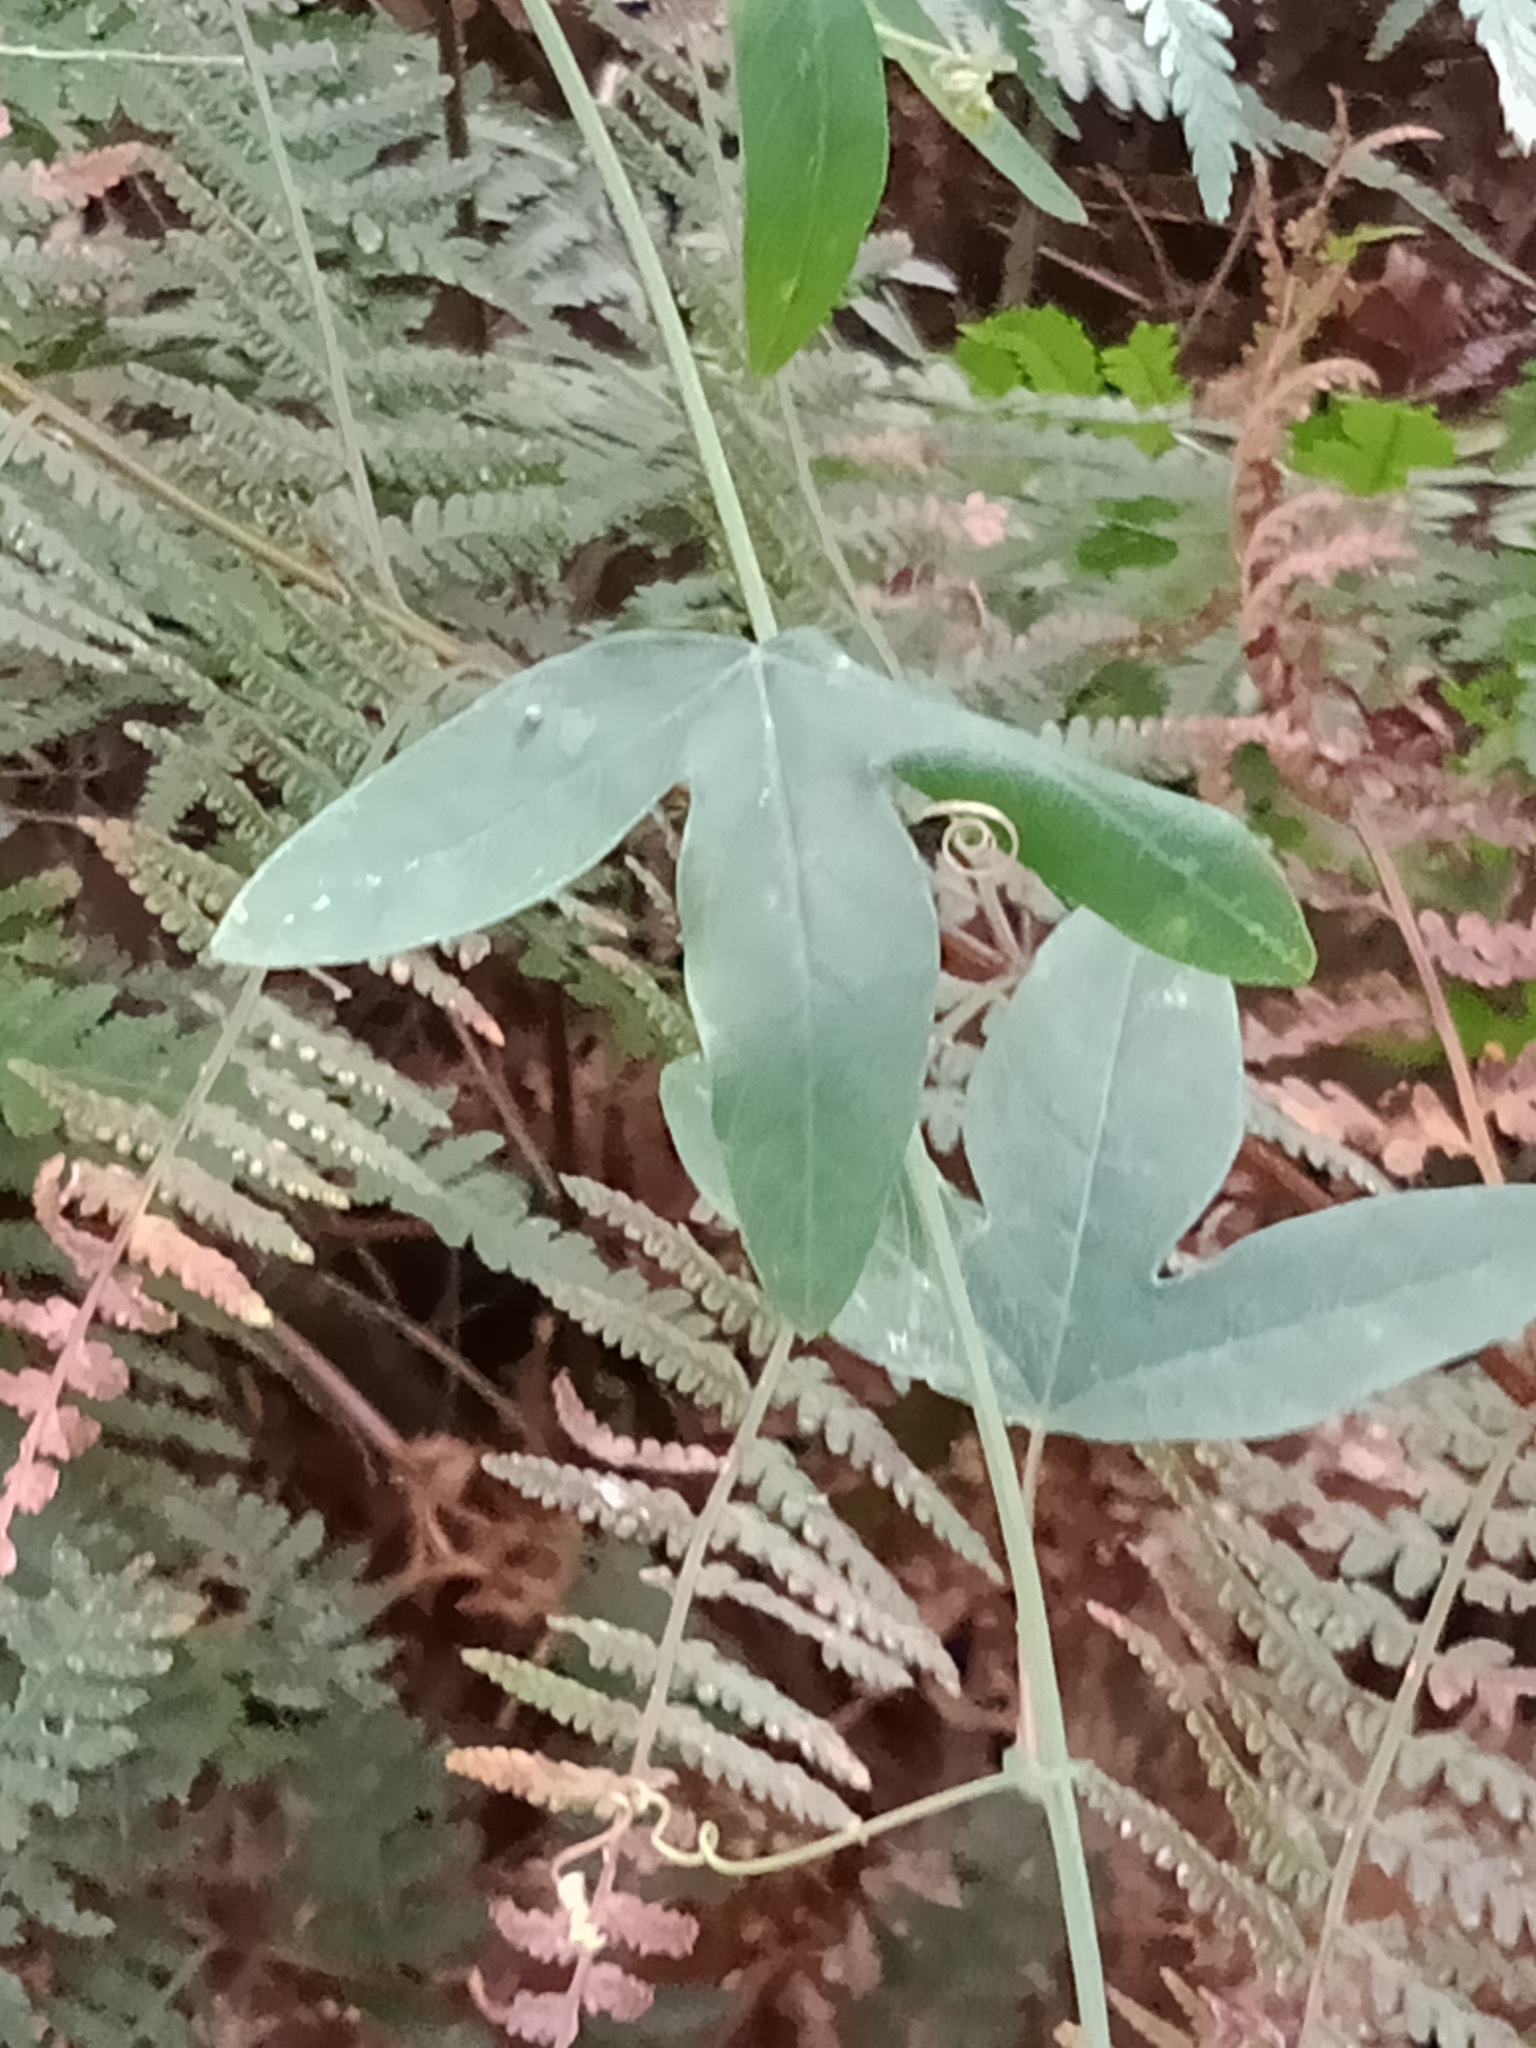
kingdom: Plantae
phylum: Tracheophyta
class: Magnoliopsida
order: Malpighiales
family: Passifloraceae
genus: Passiflora
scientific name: Passiflora caerulea
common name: Blue passionflower
